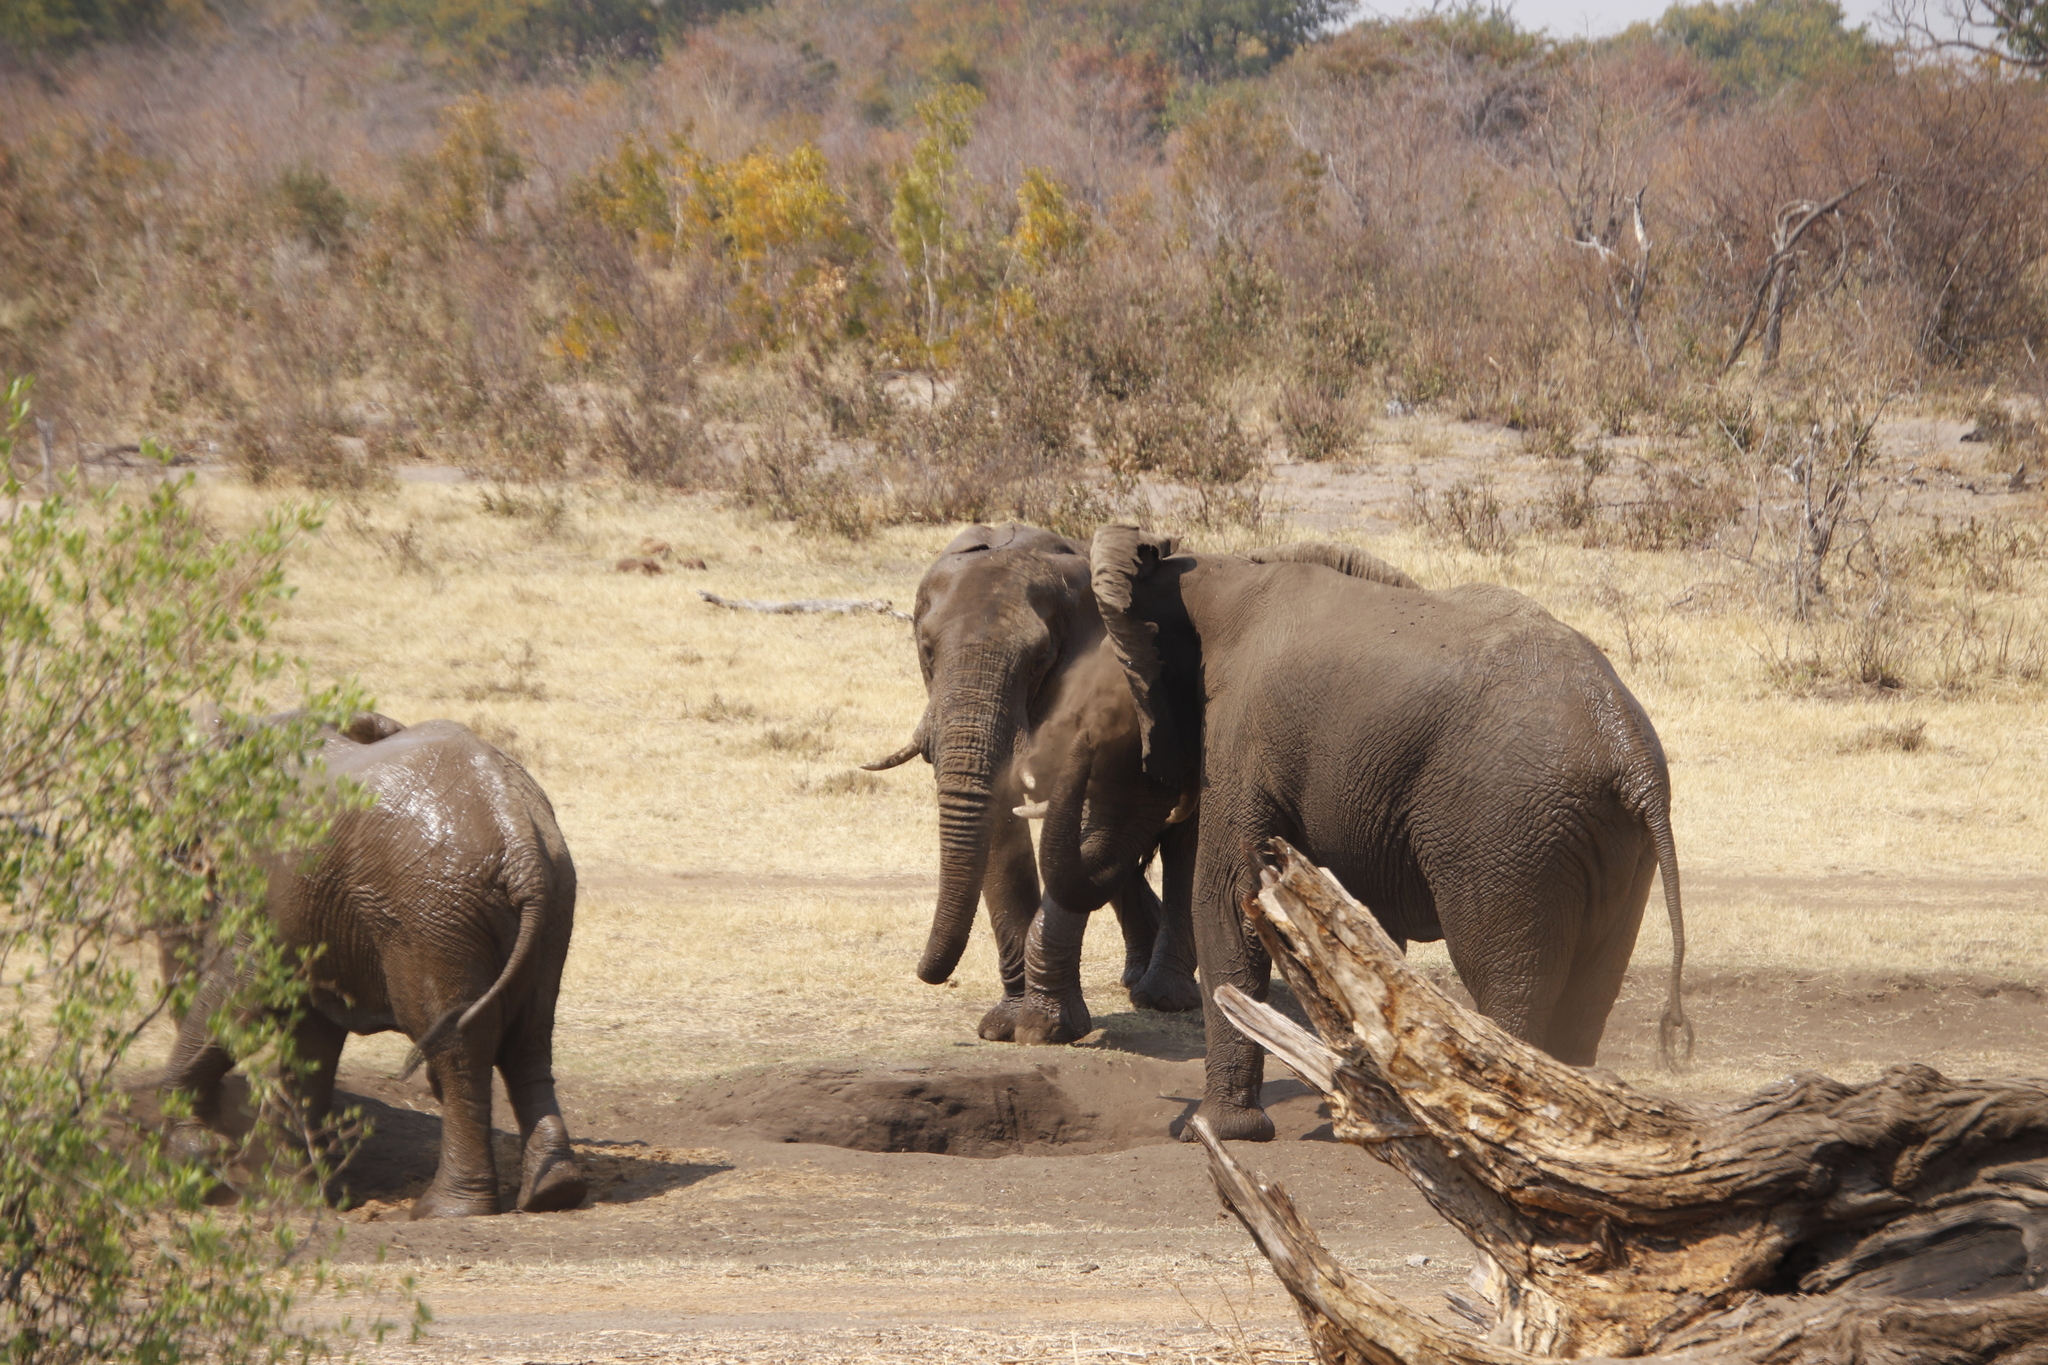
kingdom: Animalia
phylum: Chordata
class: Mammalia
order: Proboscidea
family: Elephantidae
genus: Loxodonta
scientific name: Loxodonta africana
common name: African elephant
